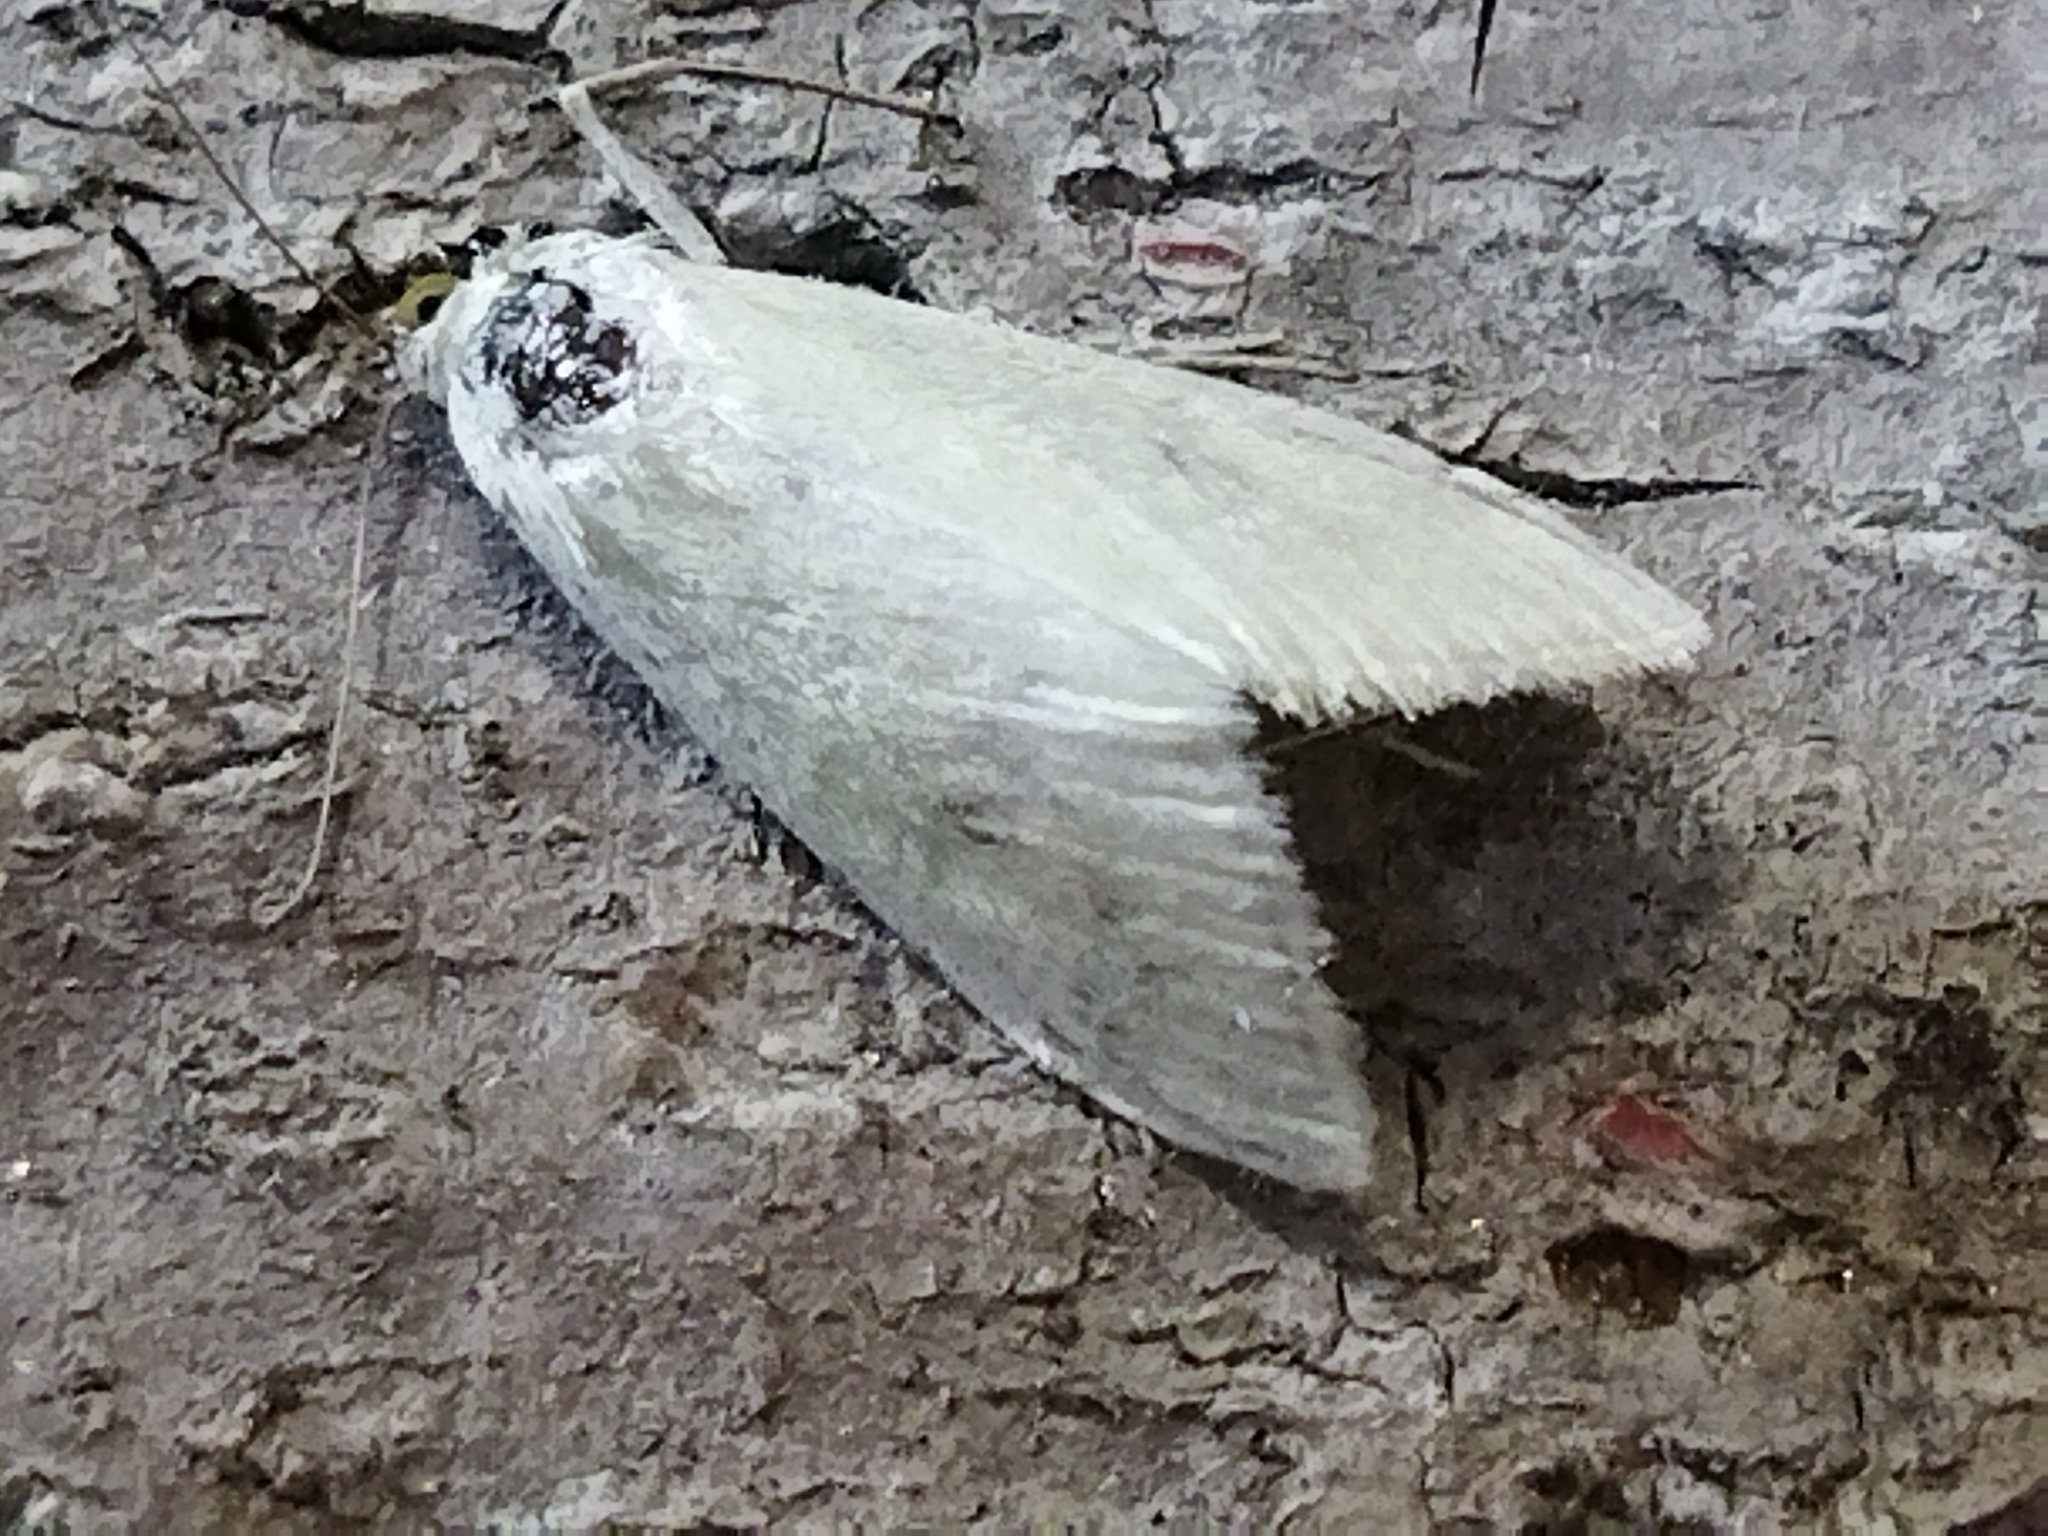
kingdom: Animalia
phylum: Arthropoda
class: Insecta
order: Lepidoptera
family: Crambidae
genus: Sitochroa
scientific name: Sitochroa palealis
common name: Greenish-yellow sitochroa moth
